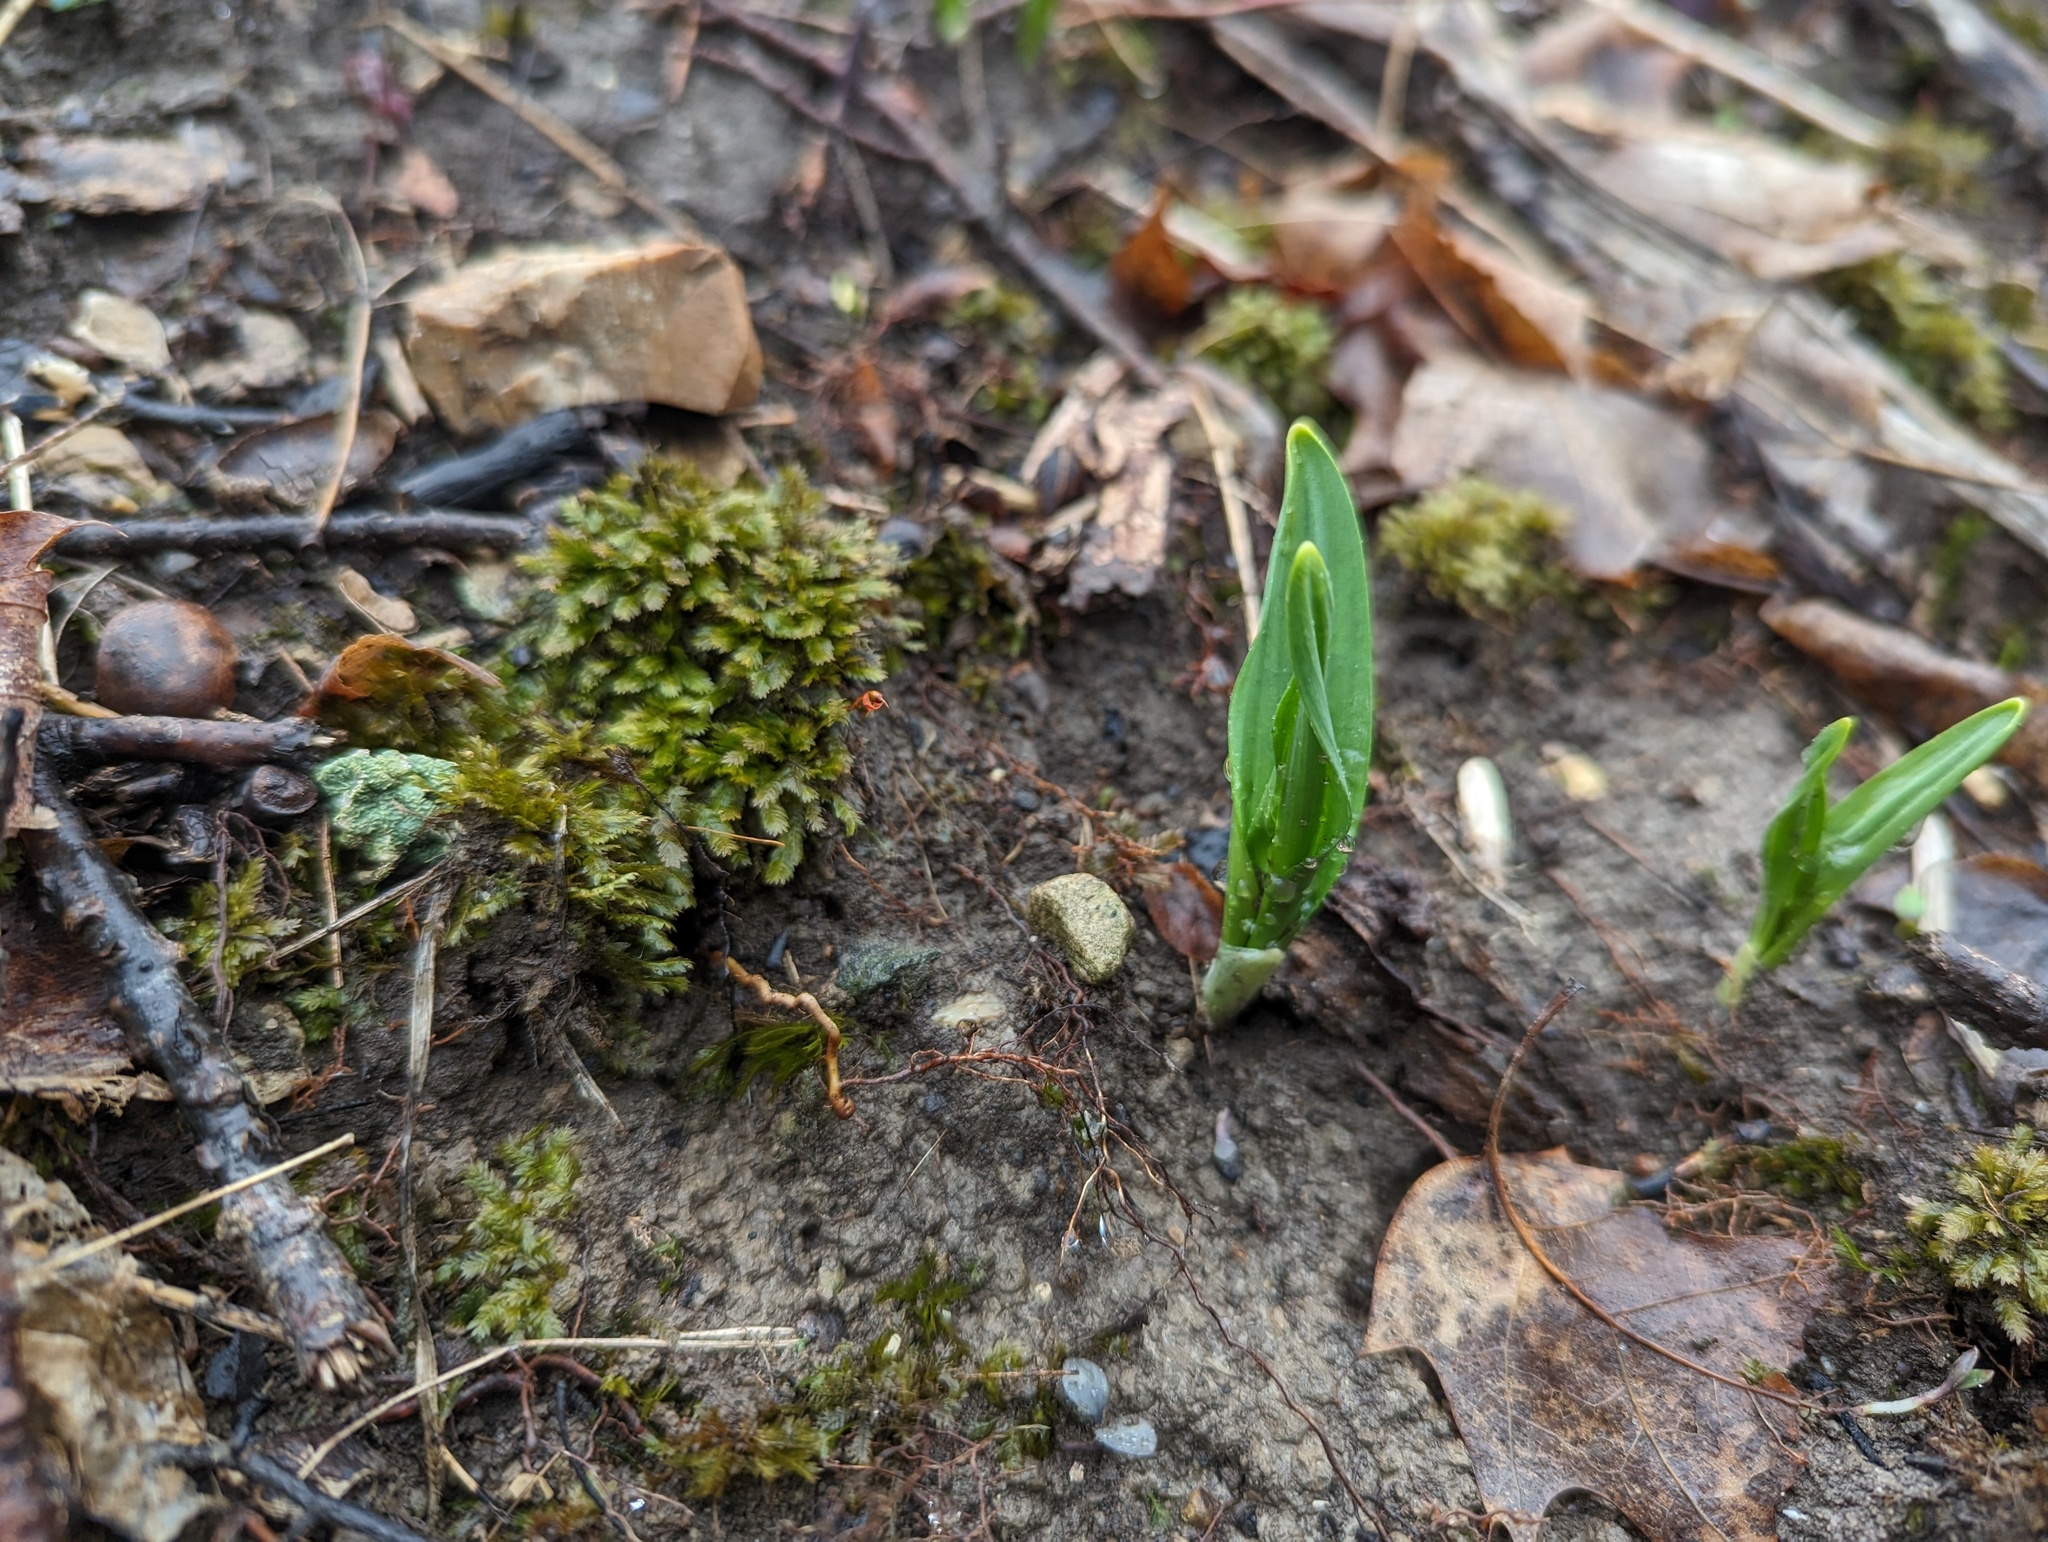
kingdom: Plantae
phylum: Tracheophyta
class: Liliopsida
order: Asparagales
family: Amaryllidaceae
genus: Allium
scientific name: Allium tricoccum
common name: Ramp
